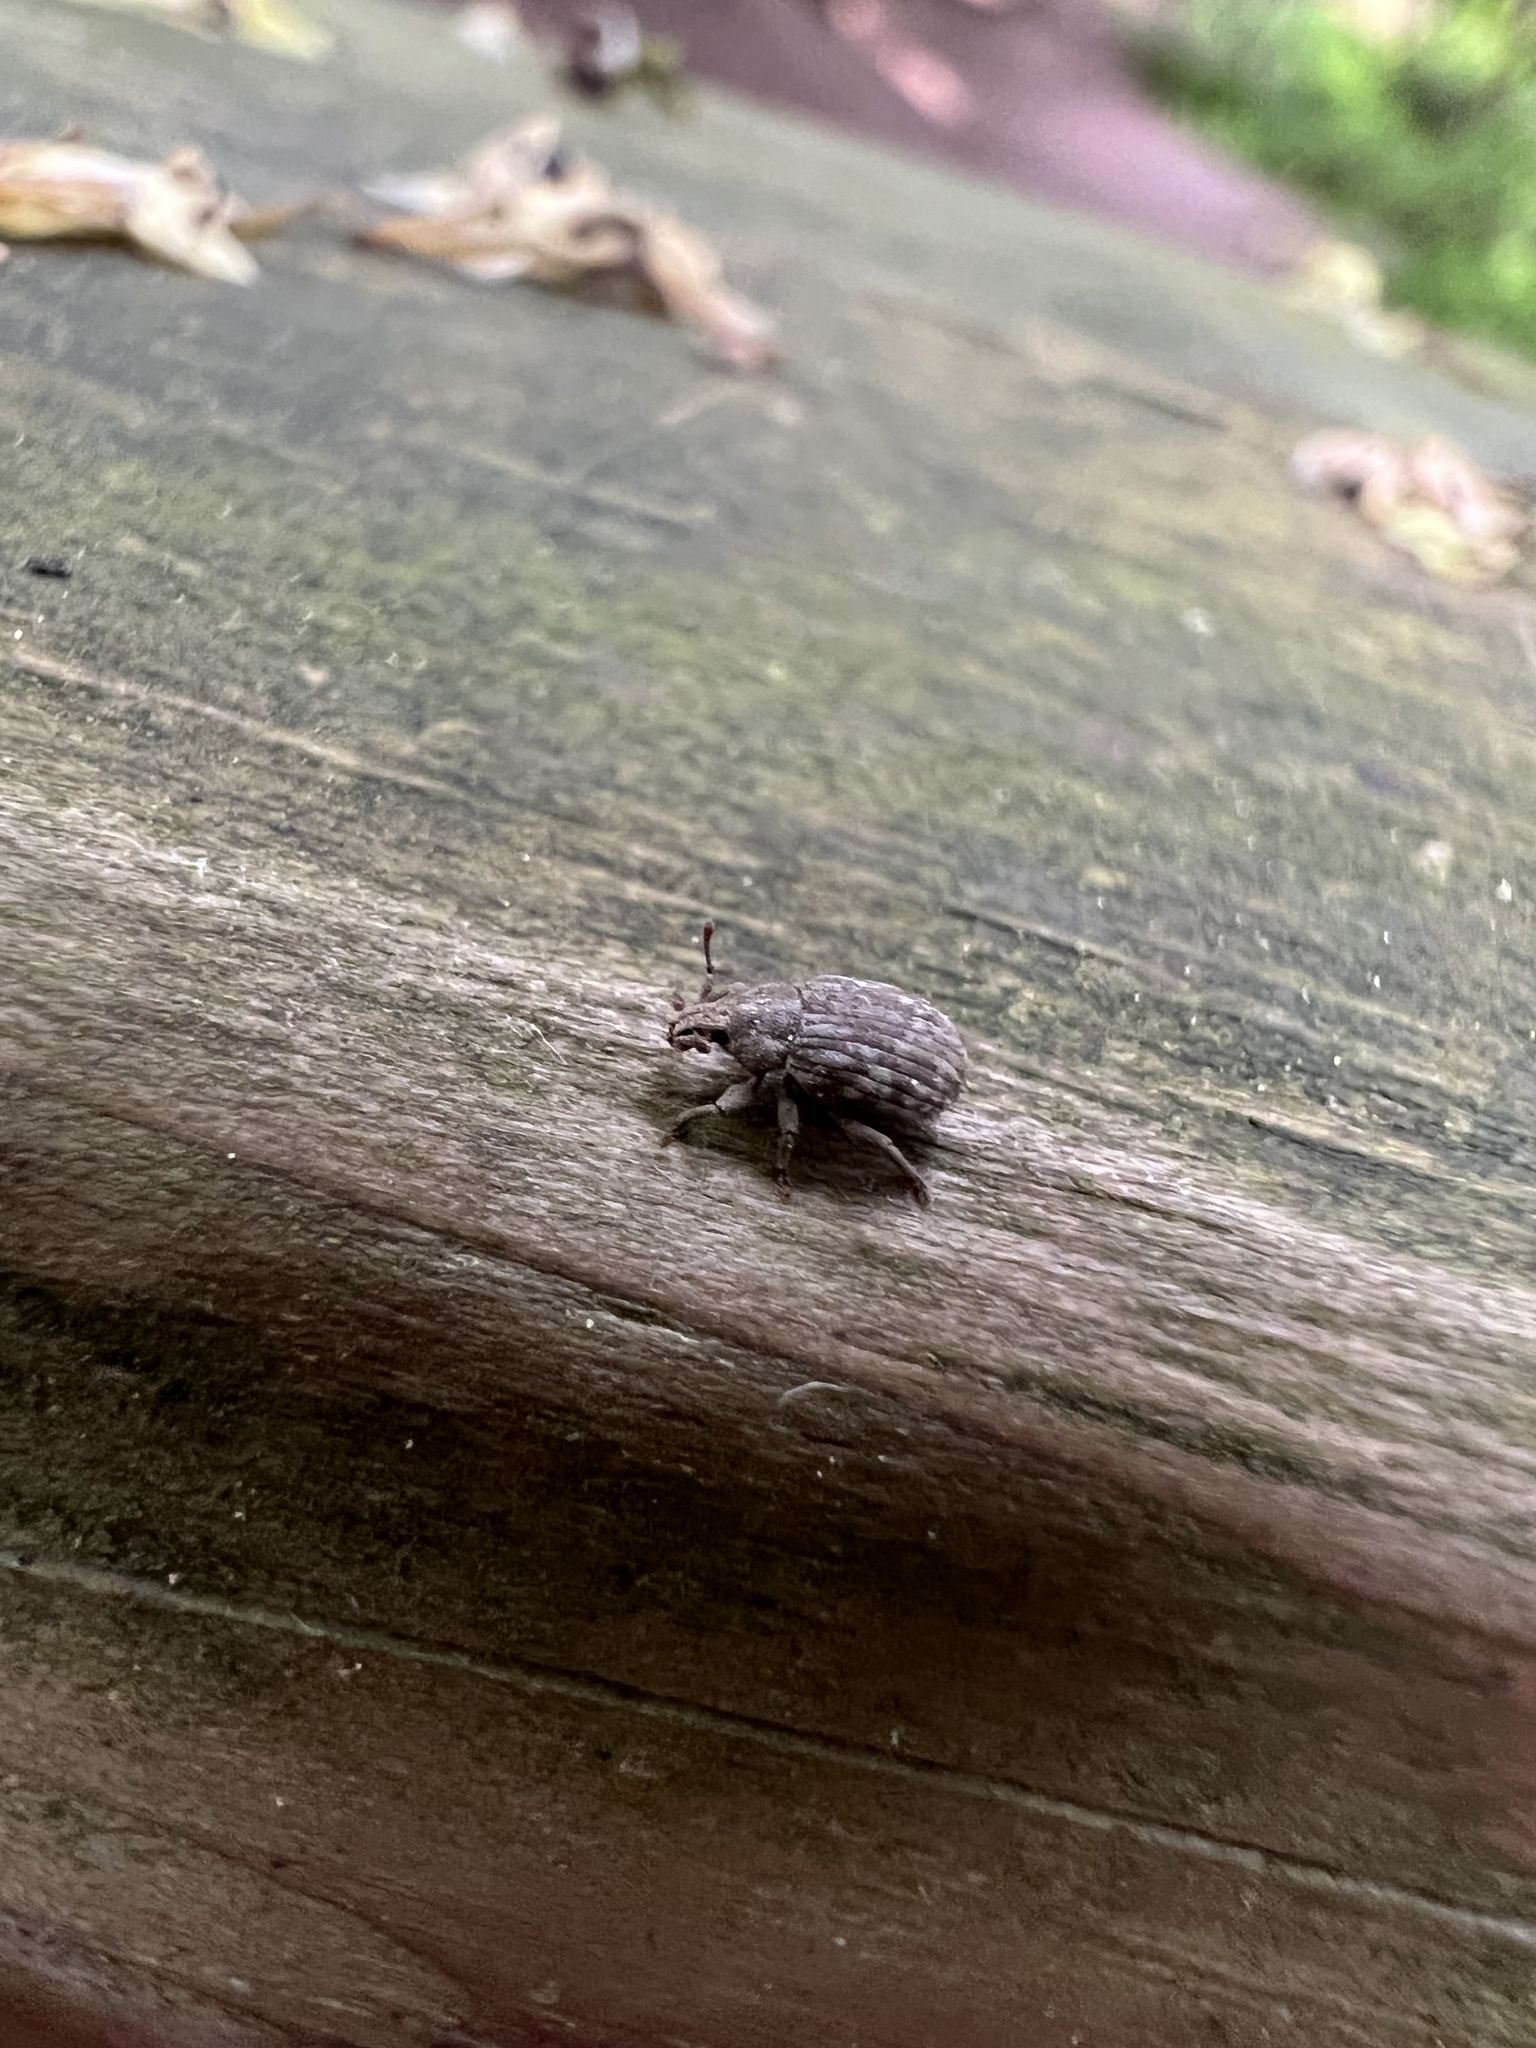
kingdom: Animalia
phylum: Arthropoda
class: Insecta
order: Coleoptera
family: Curculionidae
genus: Romualdius
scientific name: Romualdius scaber
